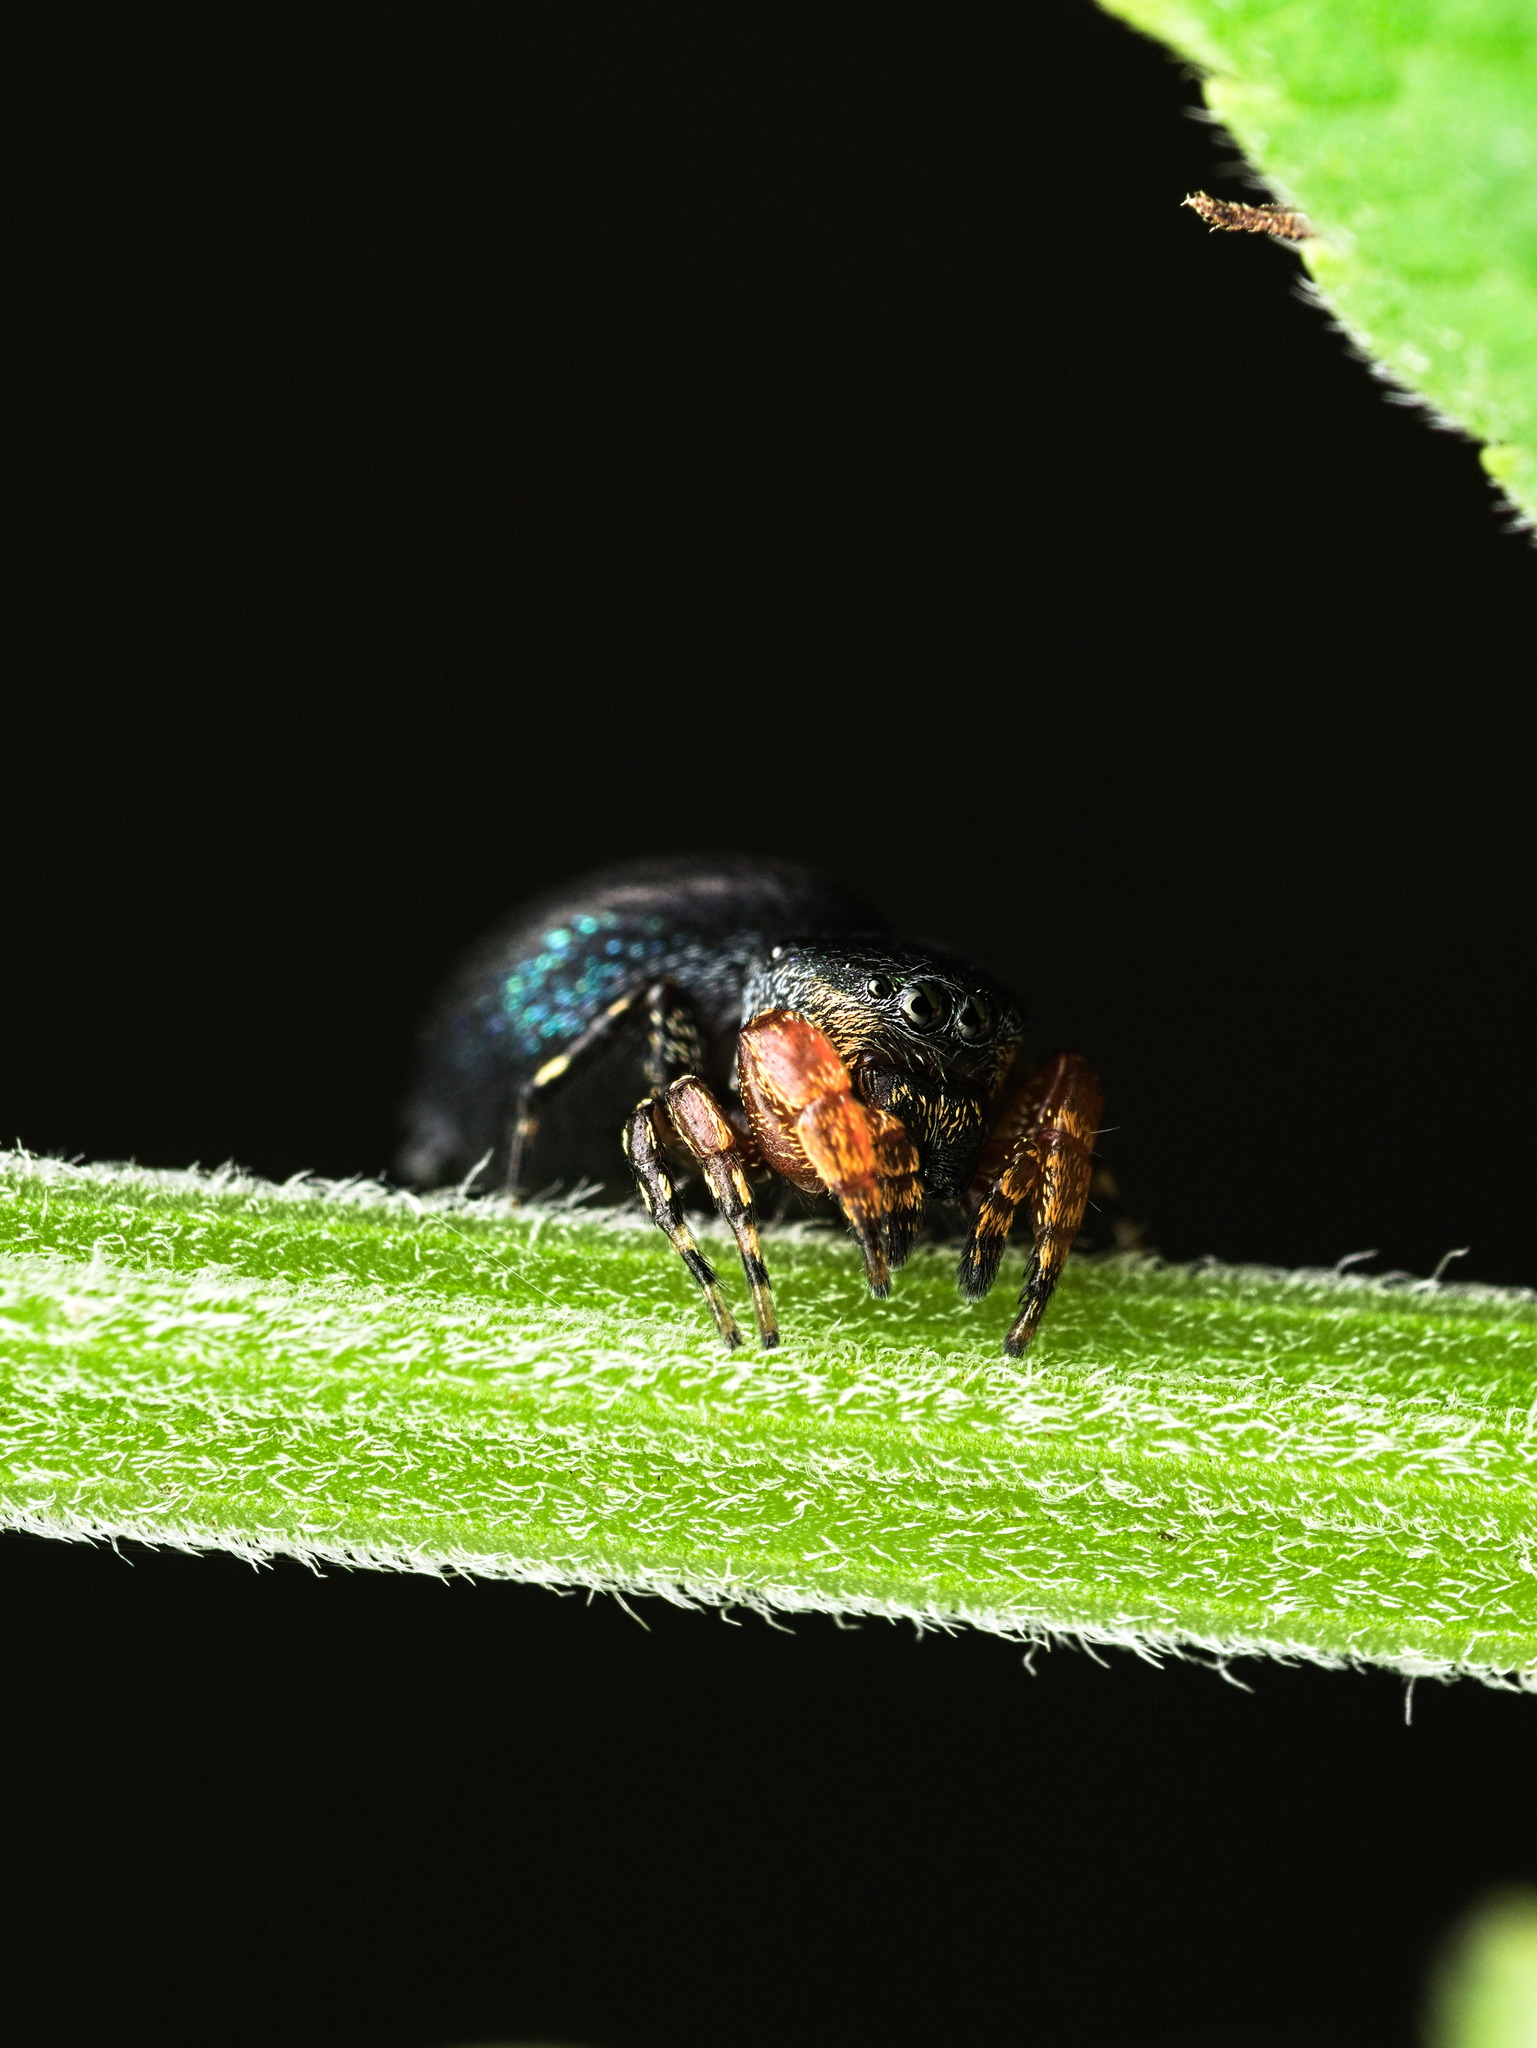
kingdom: Animalia
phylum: Arthropoda
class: Arachnida
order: Araneae
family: Salticidae
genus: Sassacus
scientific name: Sassacus alboguttatus
